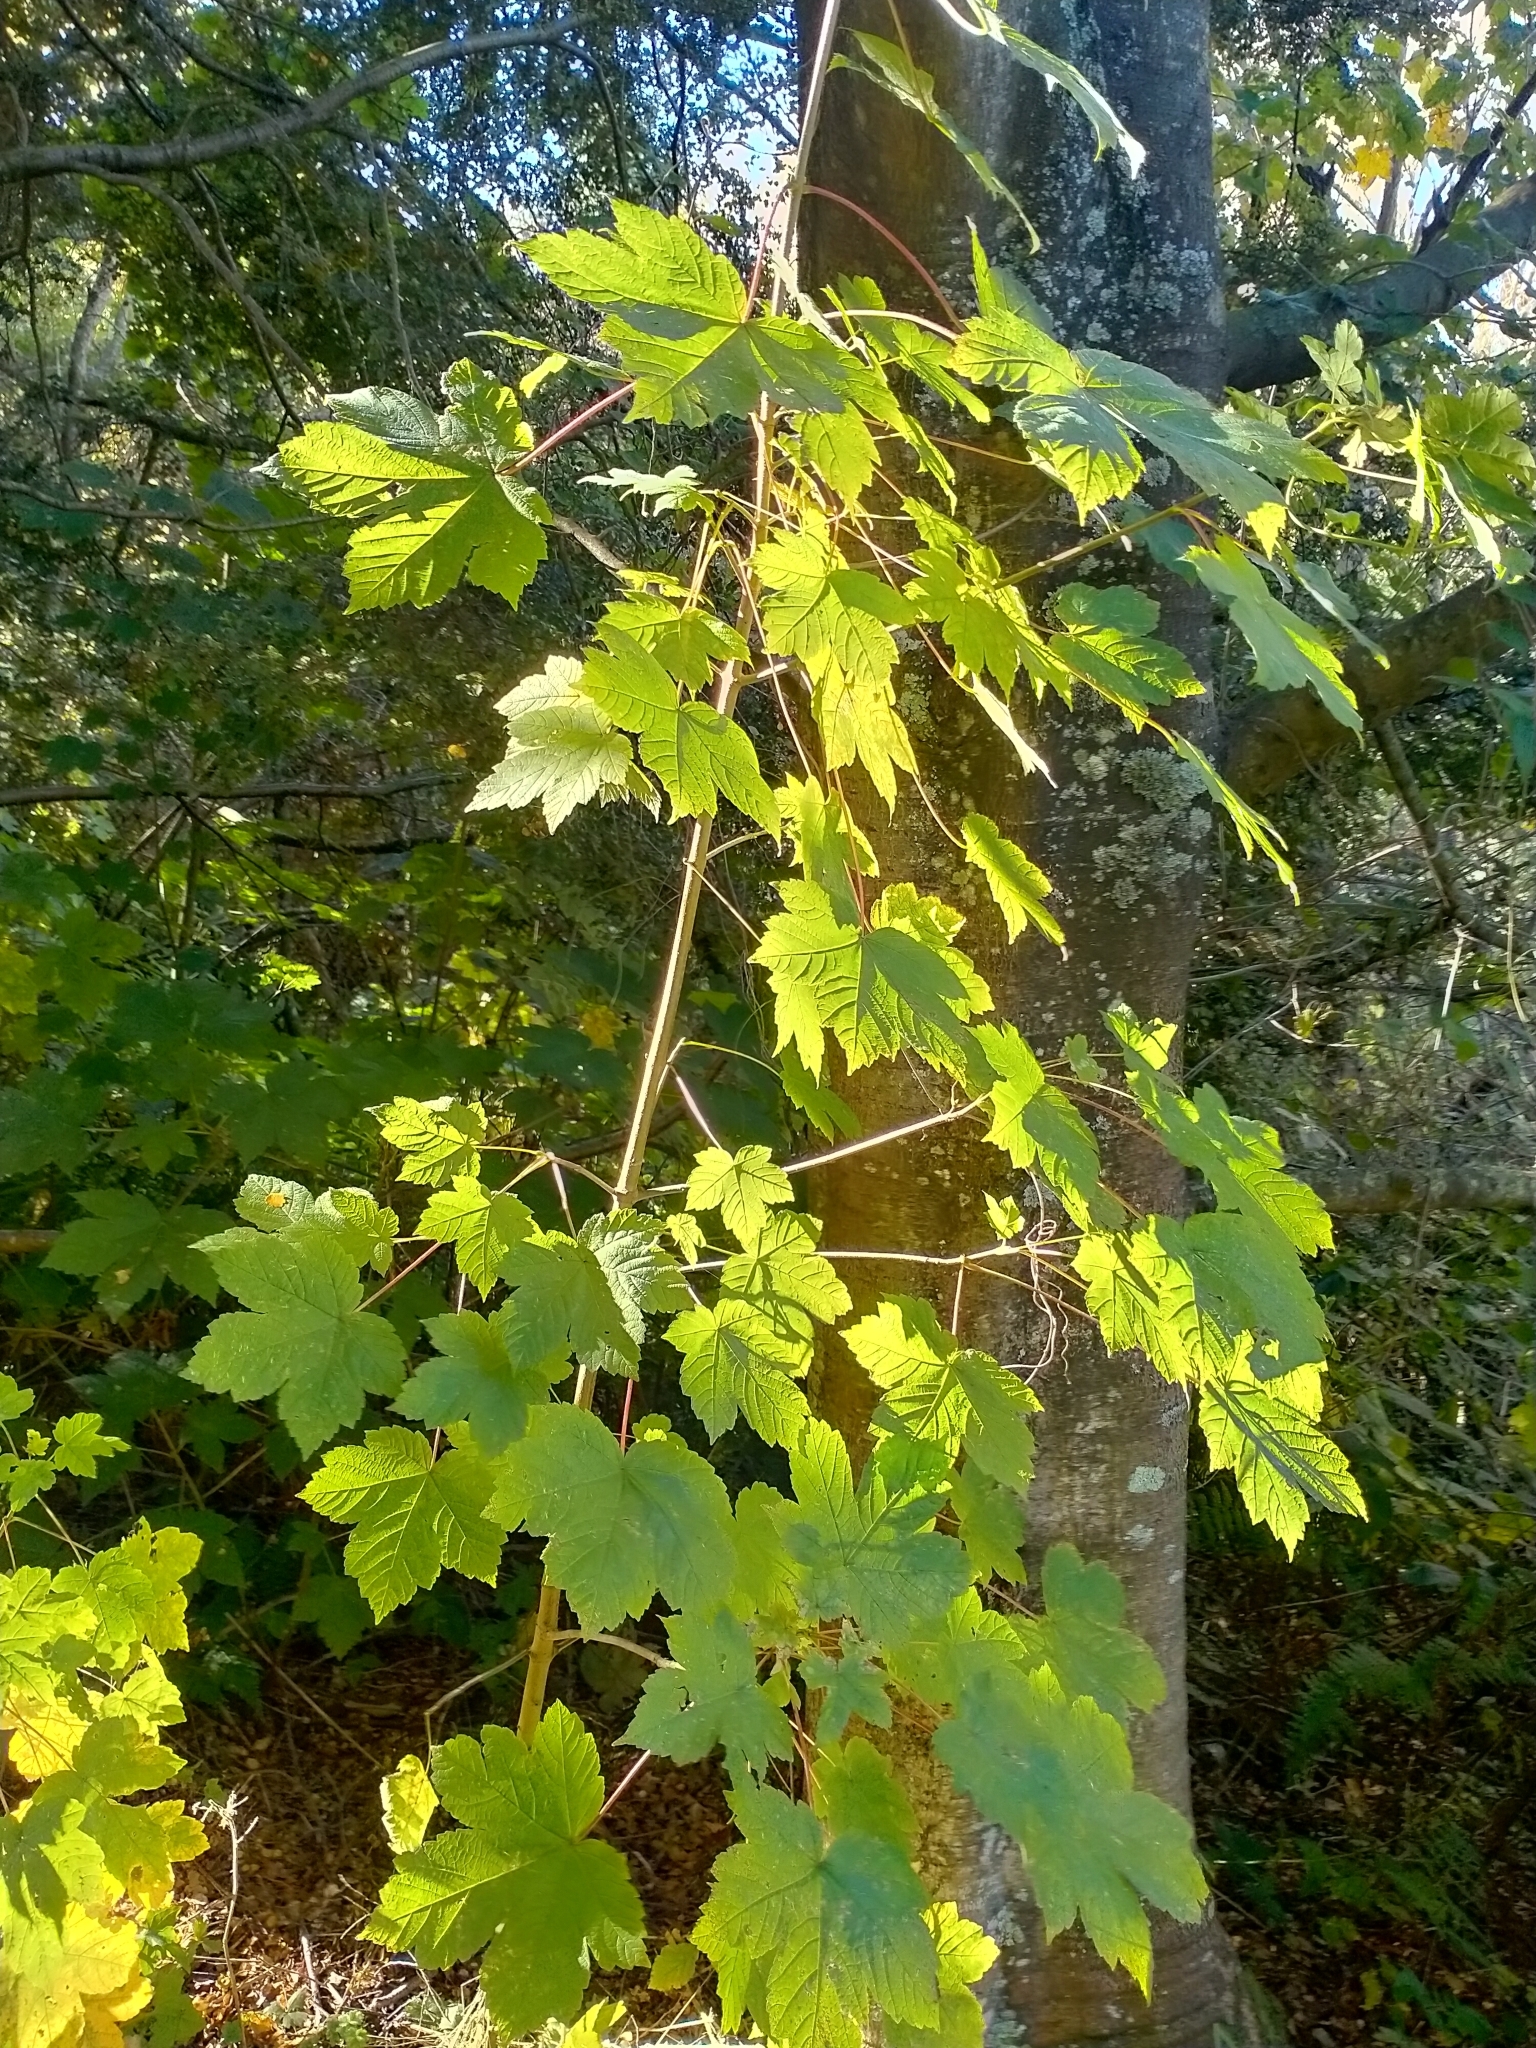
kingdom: Plantae
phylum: Tracheophyta
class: Magnoliopsida
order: Sapindales
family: Sapindaceae
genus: Acer
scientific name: Acer pseudoplatanus
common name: Sycamore
